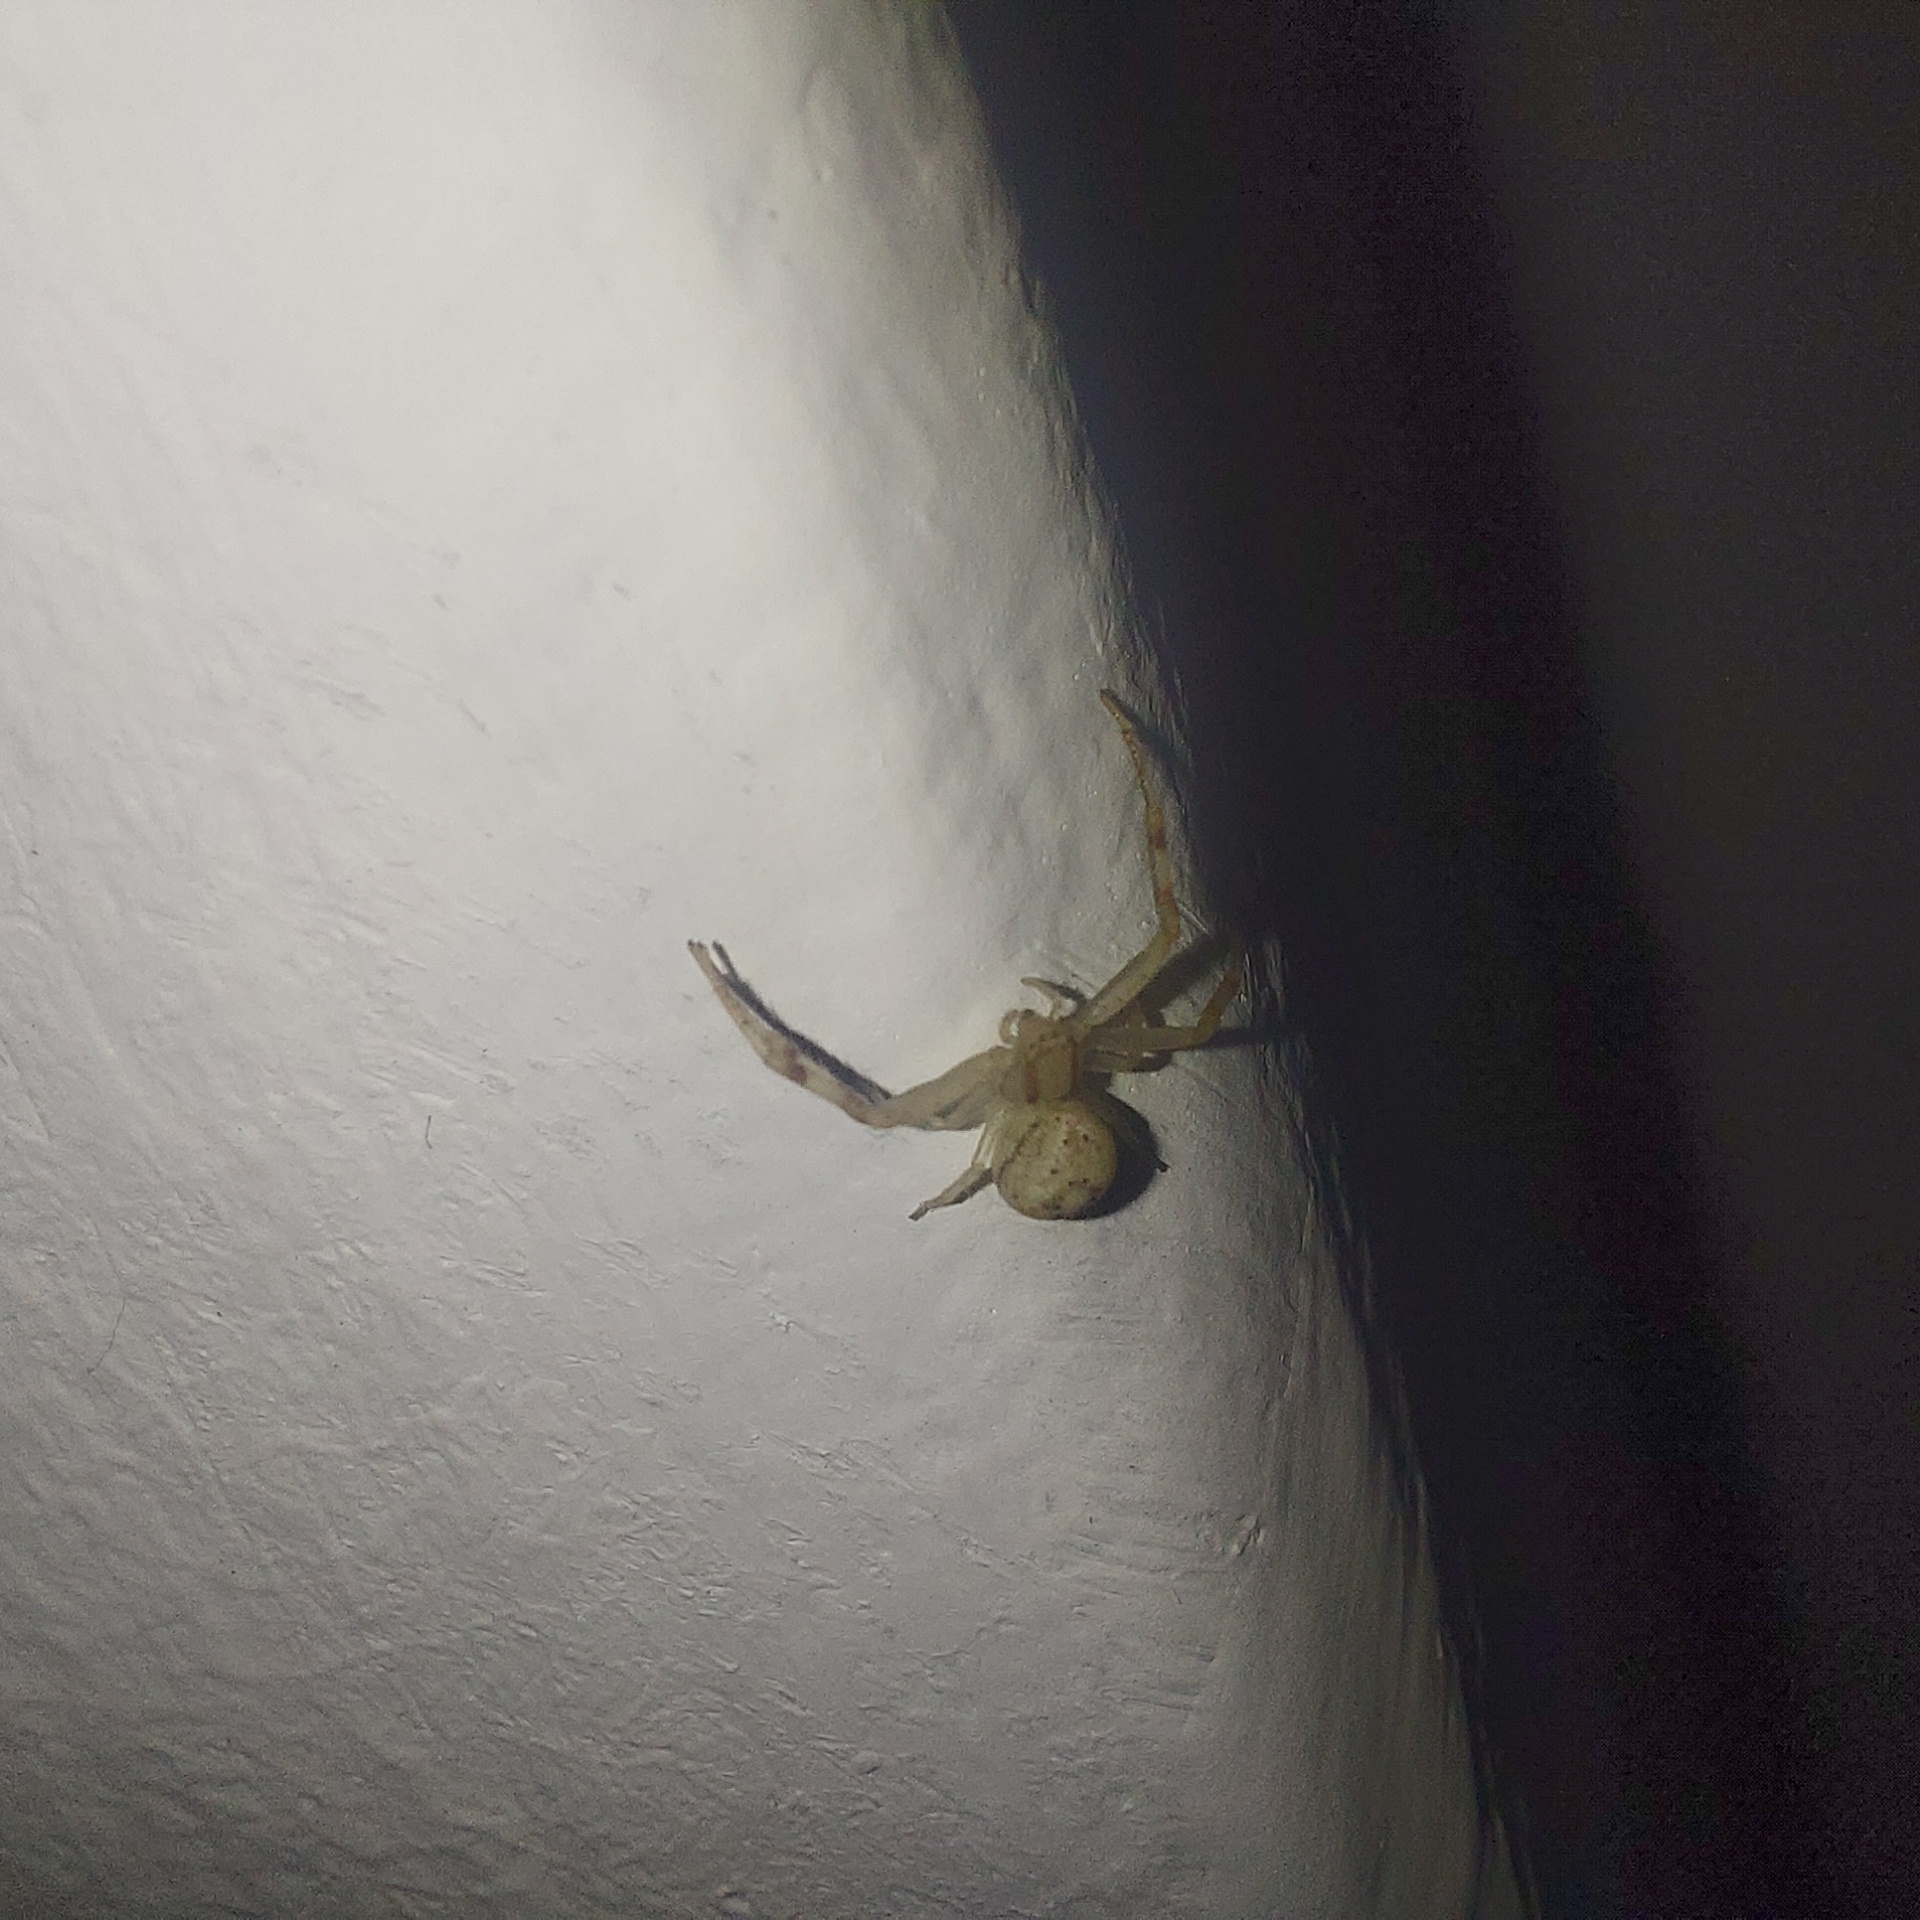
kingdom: Animalia
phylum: Arthropoda
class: Arachnida
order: Araneae
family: Thomisidae
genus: Misumenops
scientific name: Misumenops
